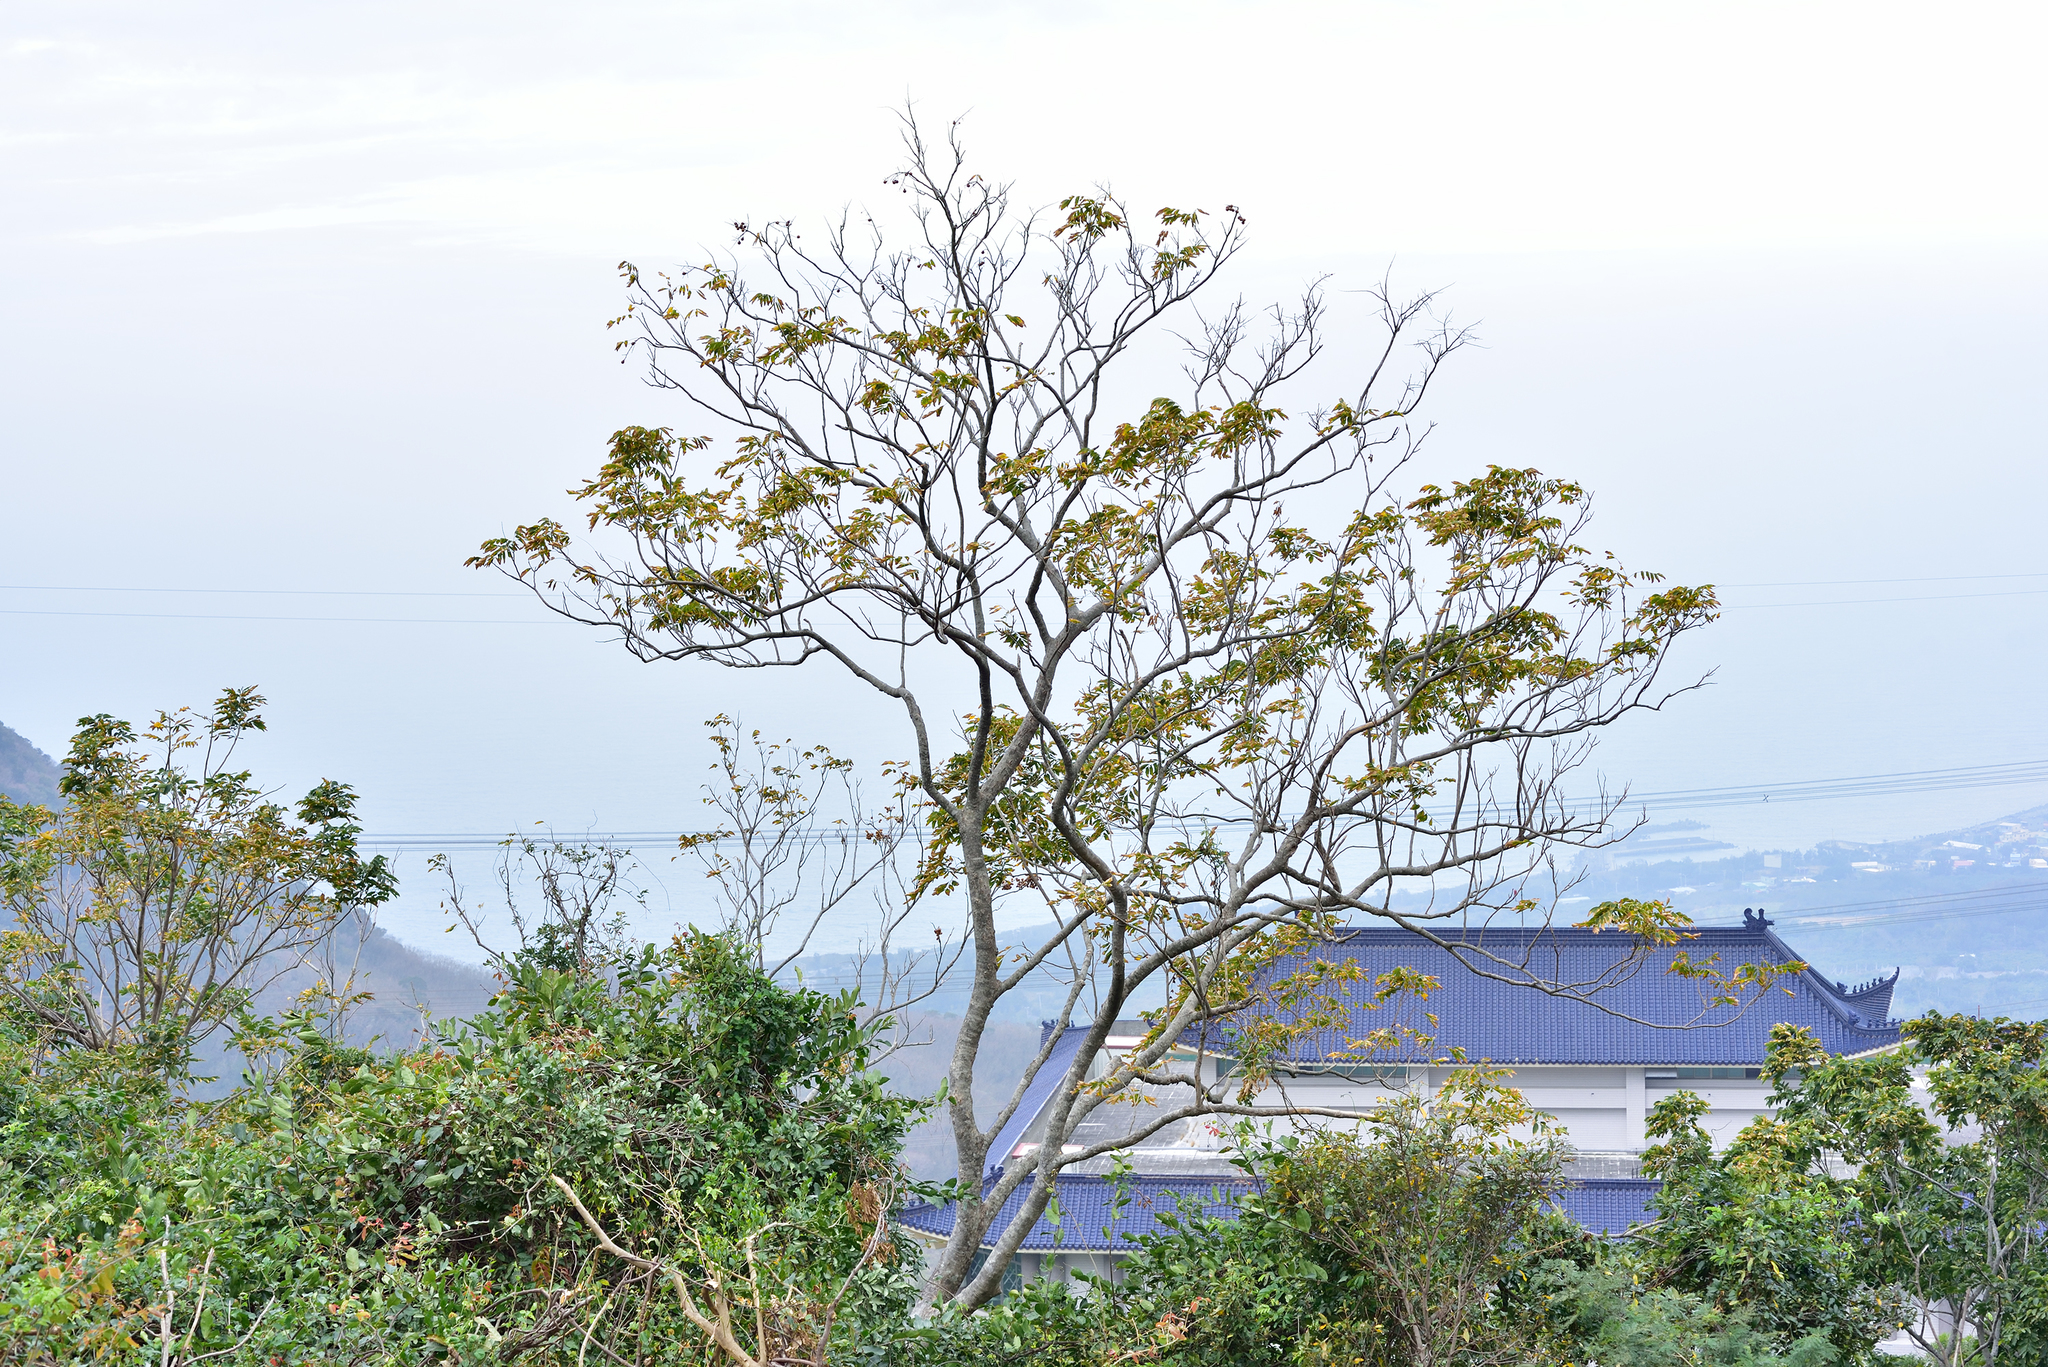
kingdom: Plantae
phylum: Tracheophyta
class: Magnoliopsida
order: Sapindales
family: Sapindaceae
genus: Sapindus
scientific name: Sapindus mukorossi
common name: Chinese soapberry
